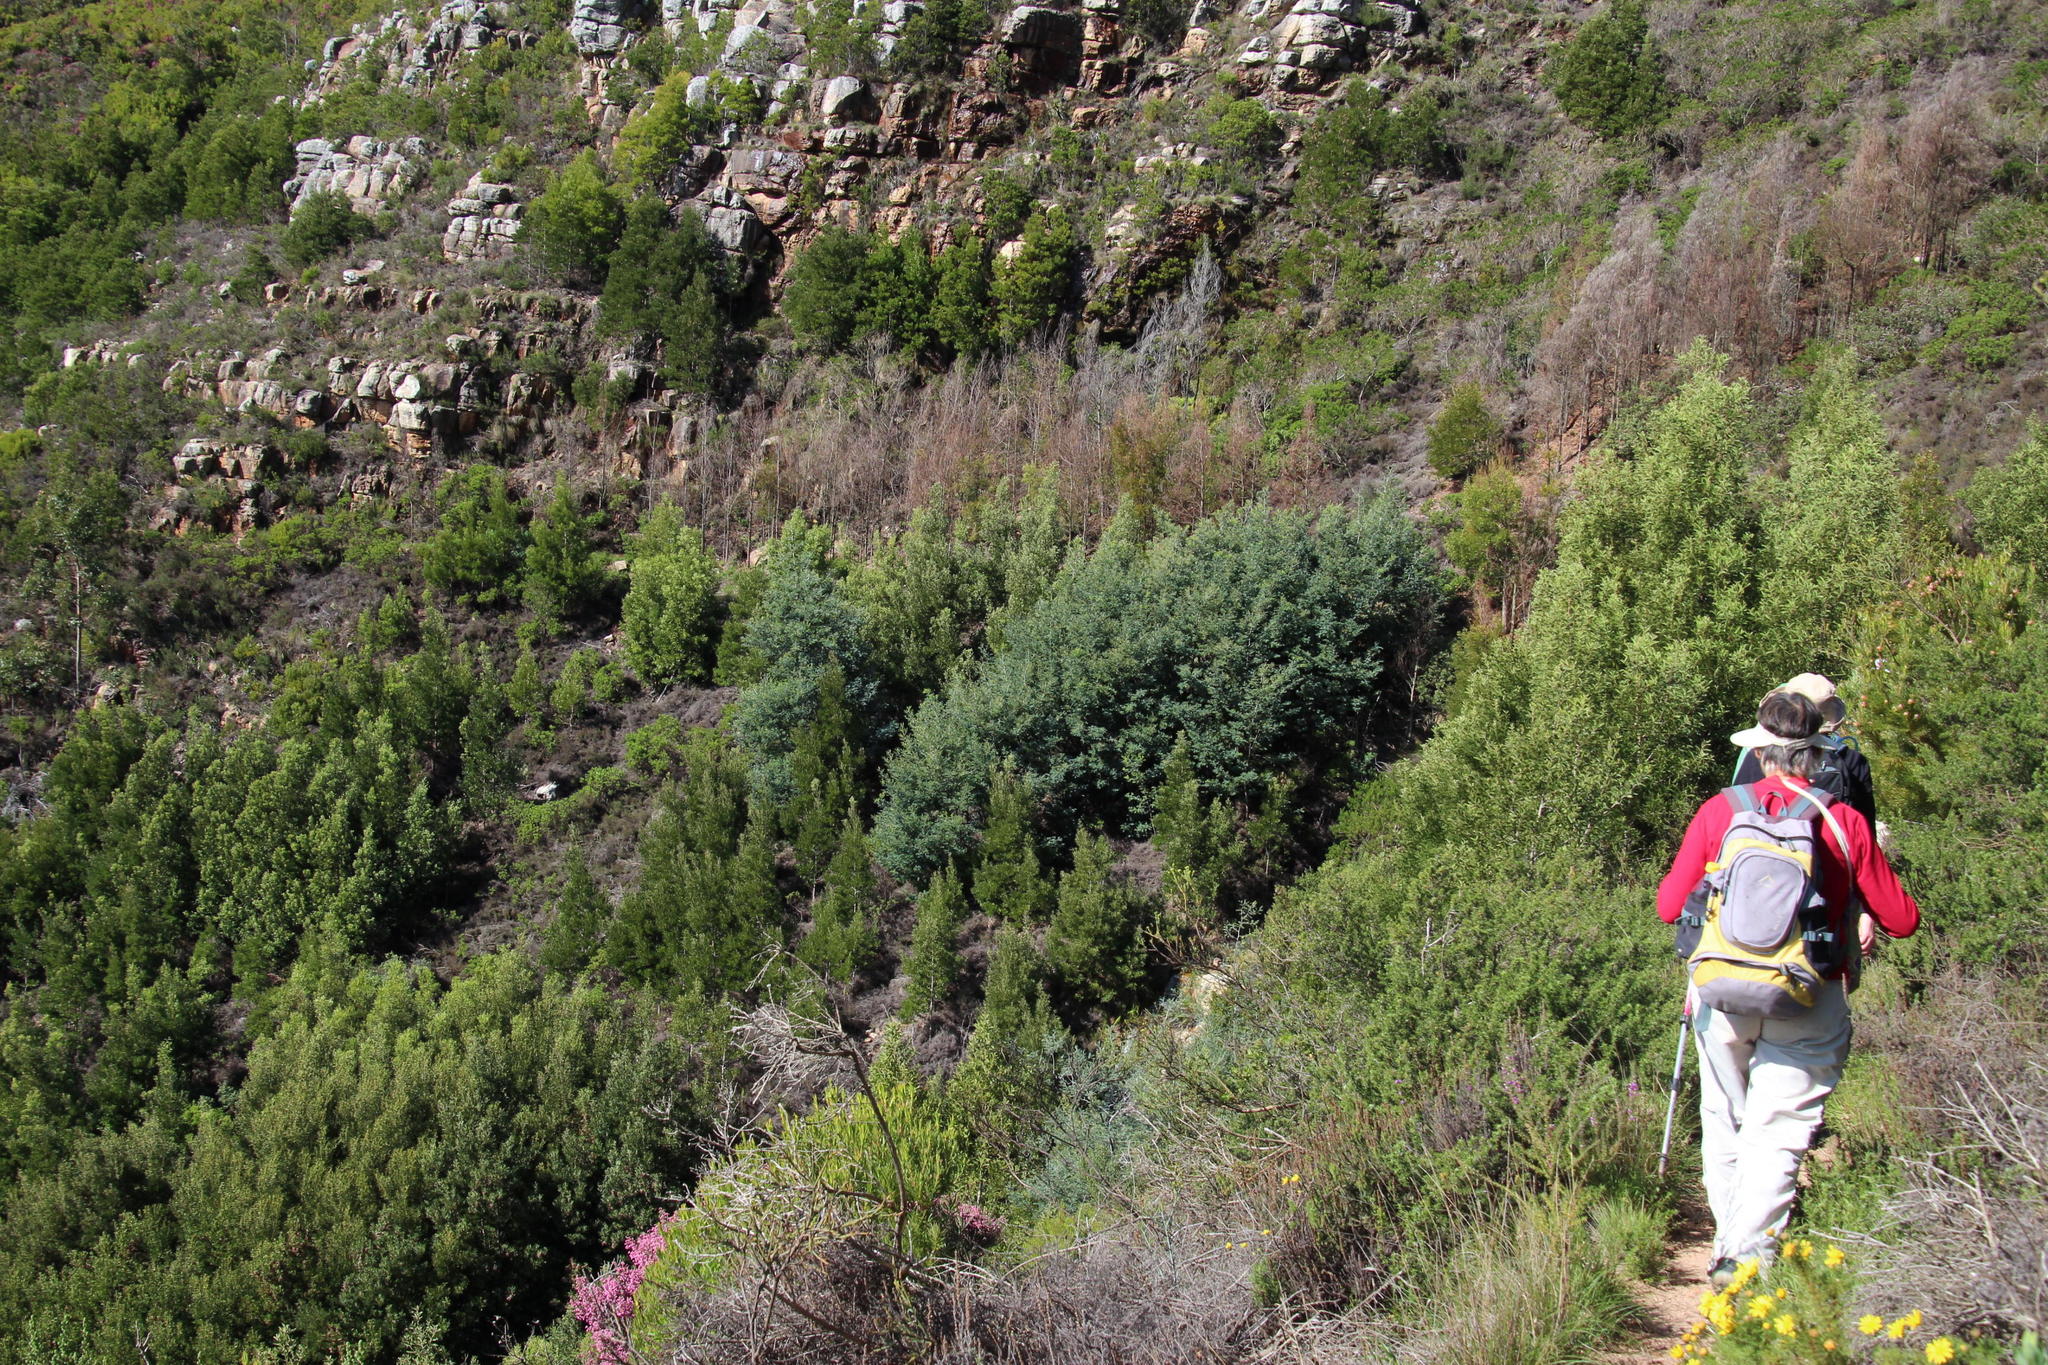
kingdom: Plantae
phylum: Tracheophyta
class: Magnoliopsida
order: Fabales
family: Fabaceae
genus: Acacia
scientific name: Acacia dealbata
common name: Silver wattle
